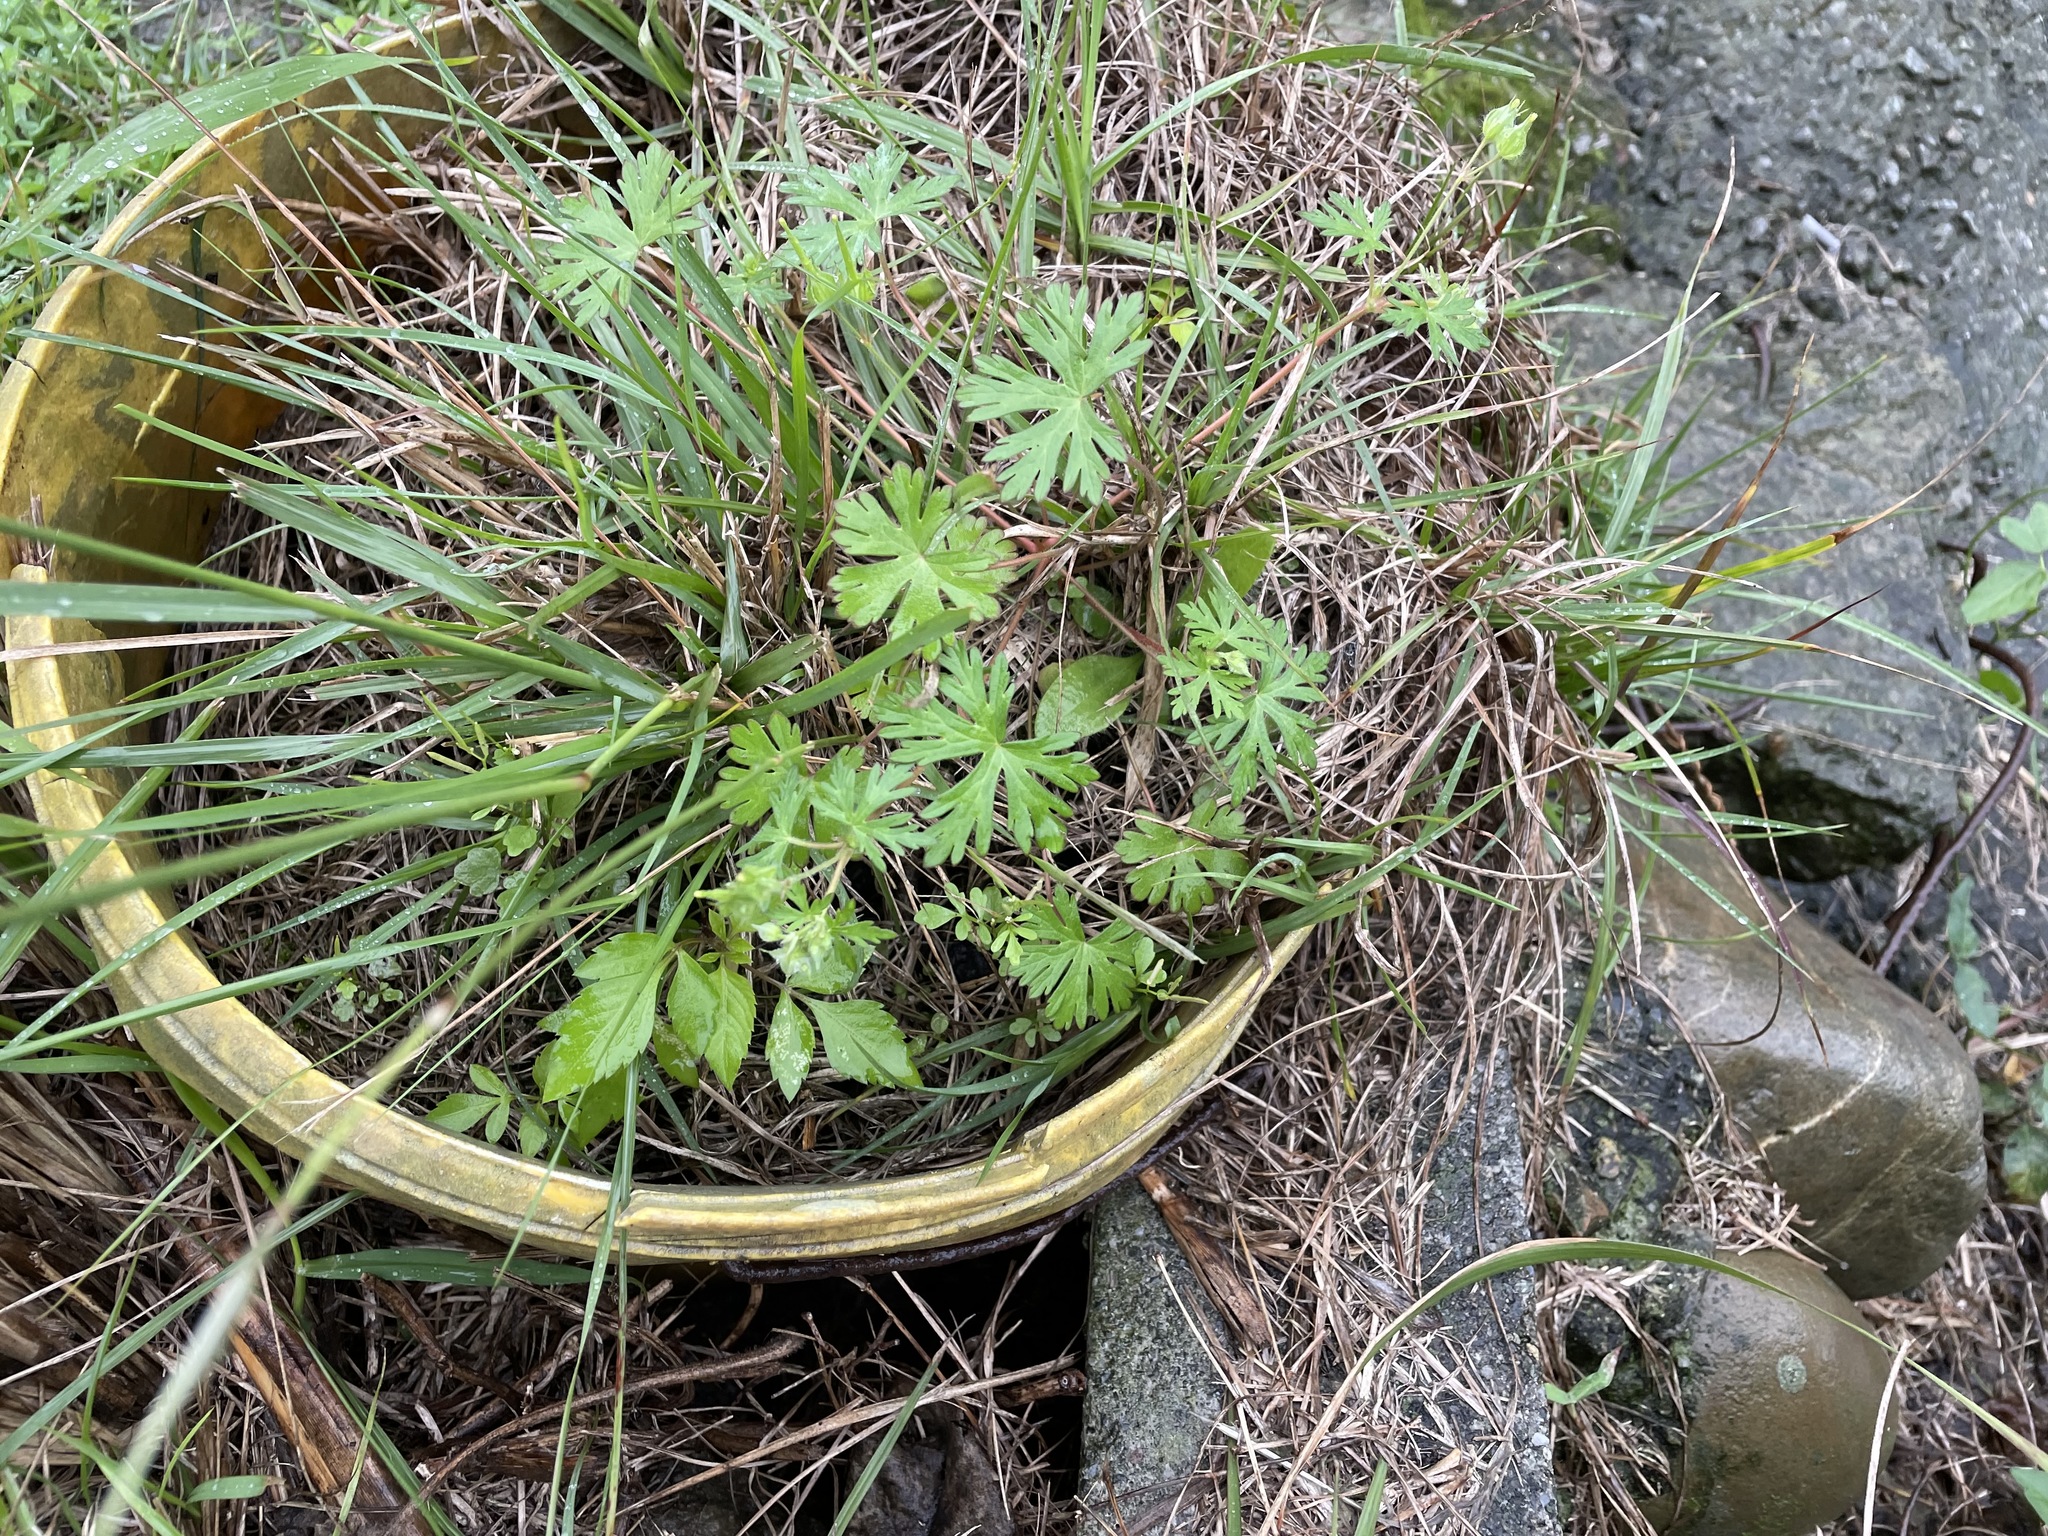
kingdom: Plantae
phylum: Tracheophyta
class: Magnoliopsida
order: Geraniales
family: Geraniaceae
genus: Geranium
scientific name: Geranium carolinianum
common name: Carolina crane's-bill
